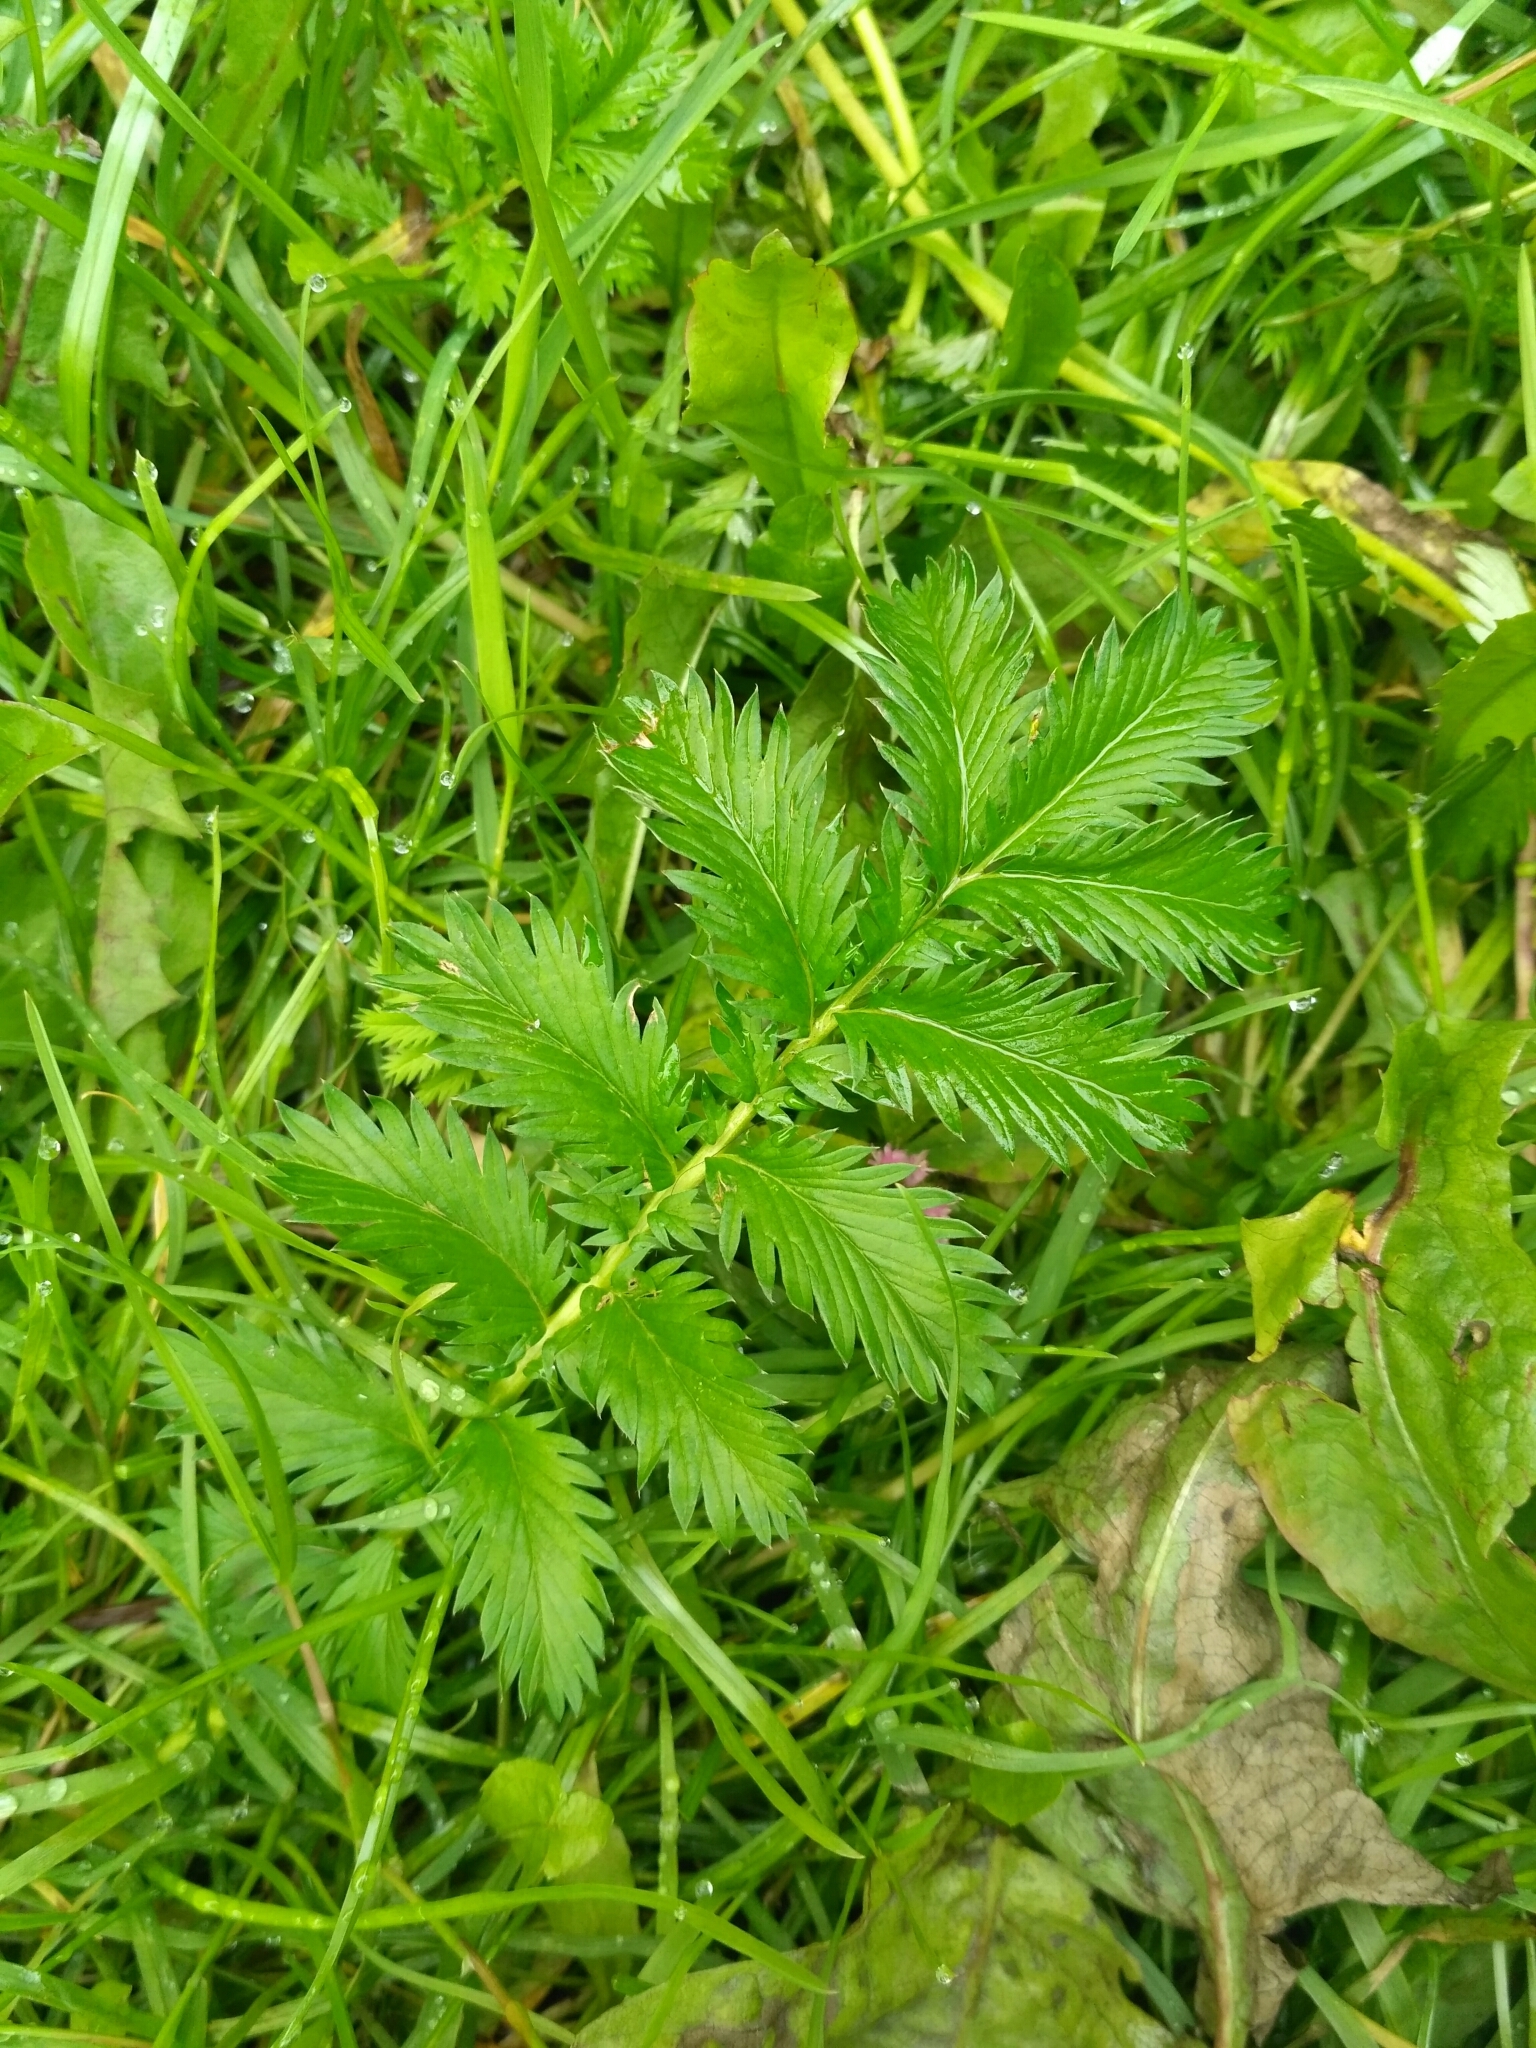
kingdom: Plantae
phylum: Tracheophyta
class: Magnoliopsida
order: Rosales
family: Rosaceae
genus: Argentina
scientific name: Argentina anserina
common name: Common silverweed
